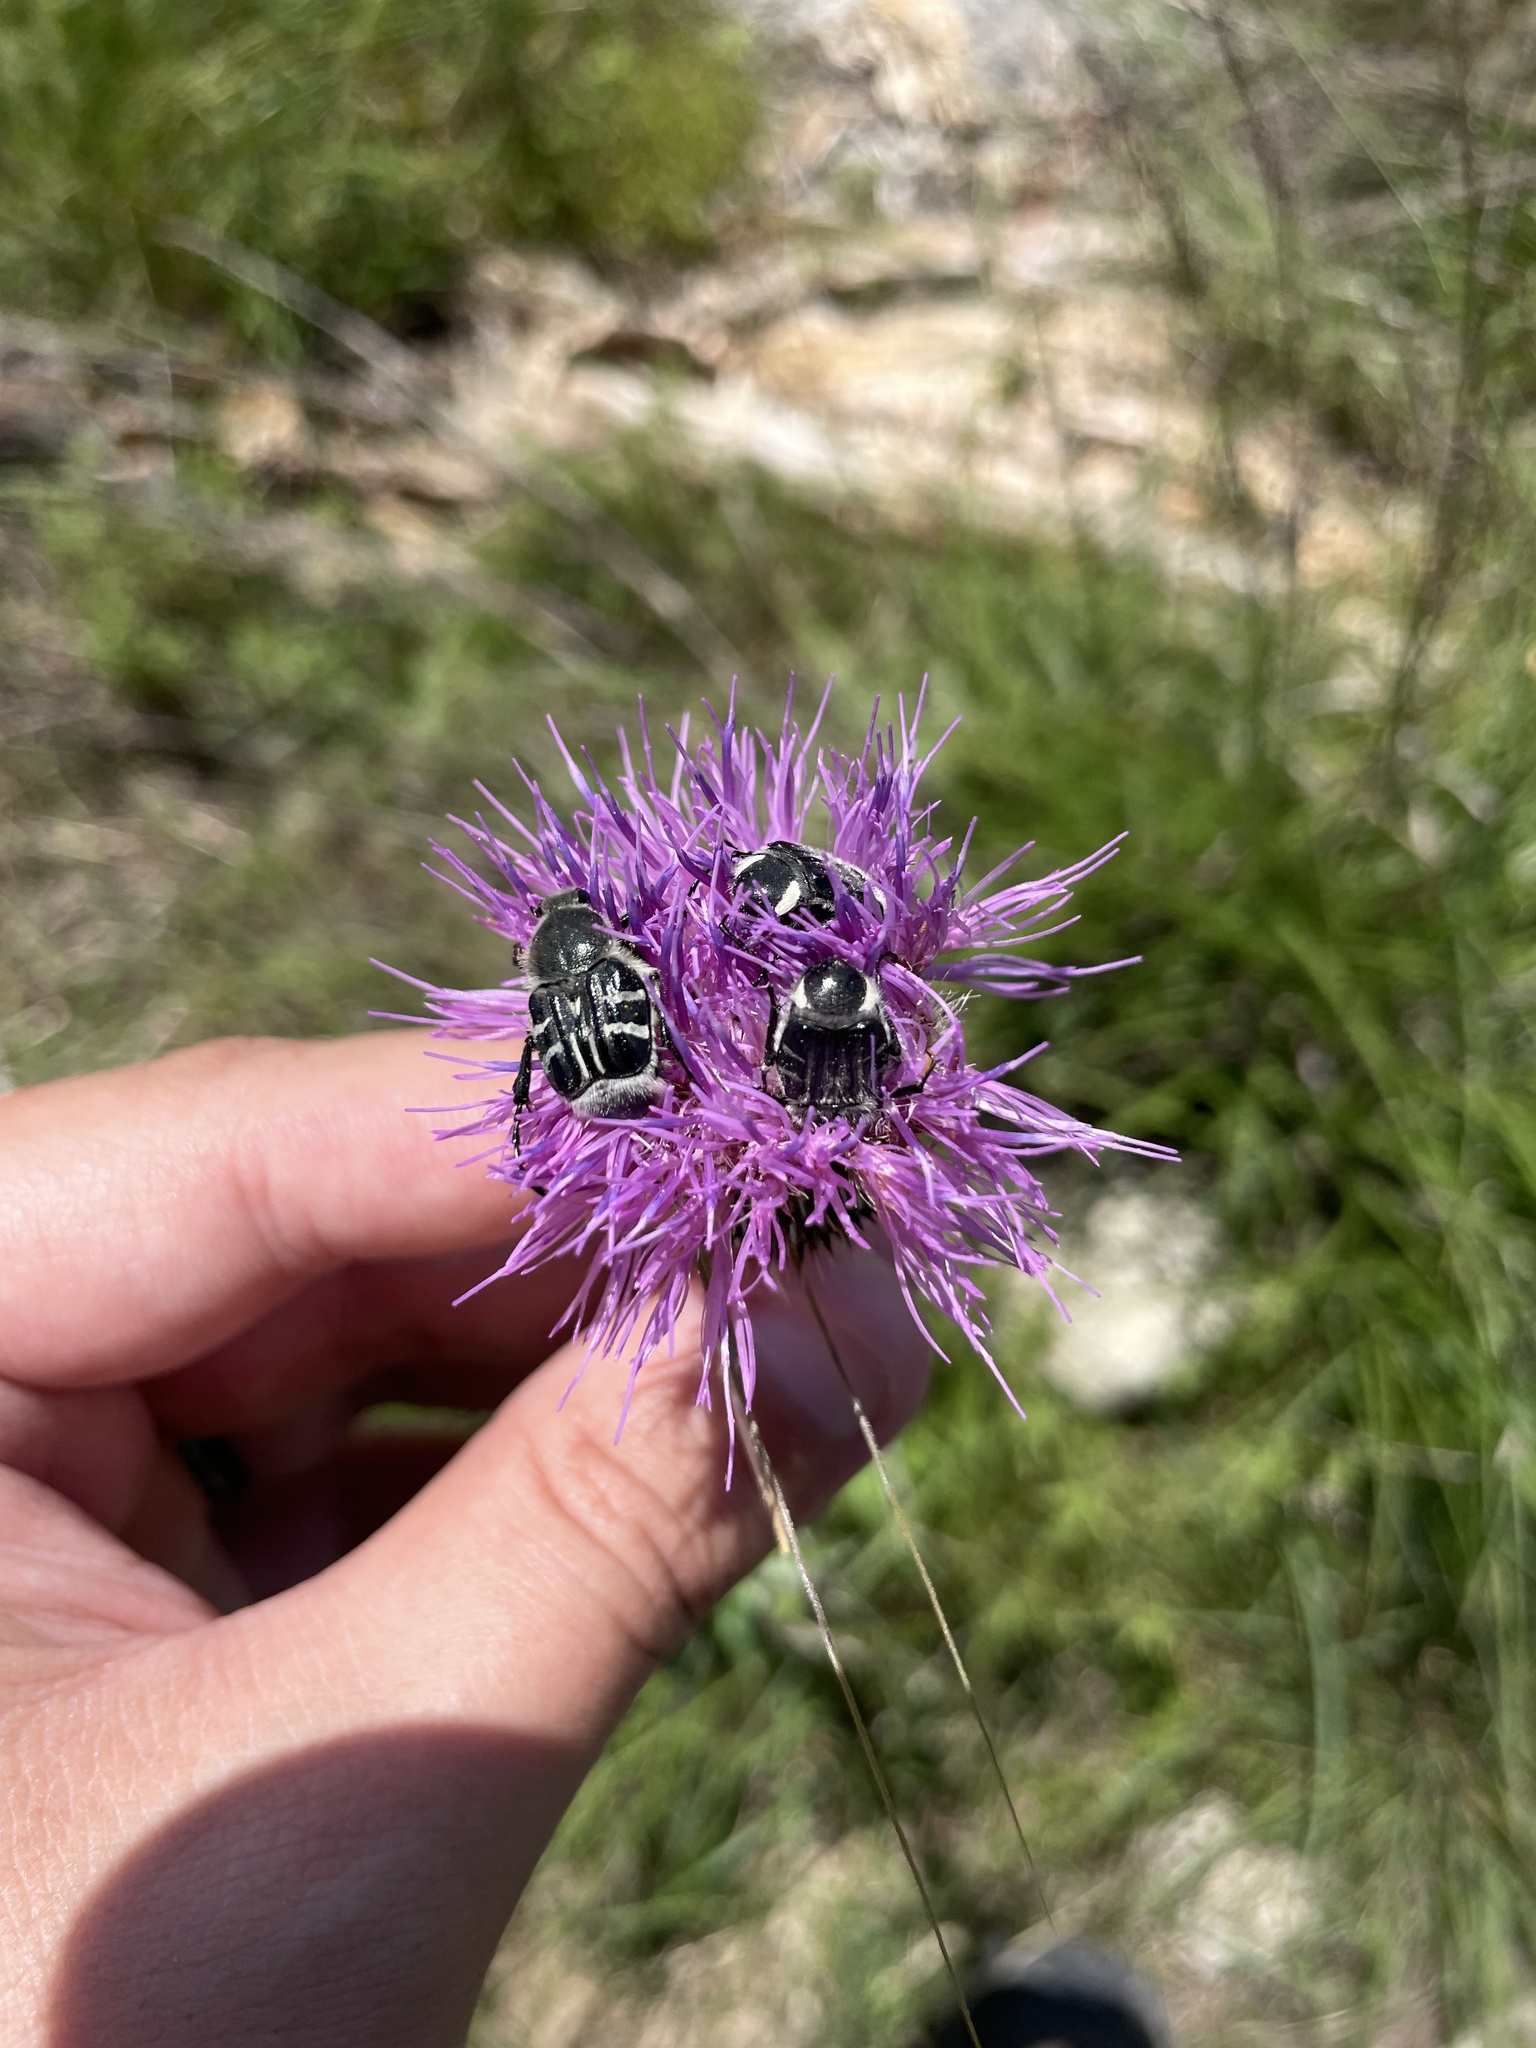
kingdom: Plantae
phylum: Tracheophyta
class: Magnoliopsida
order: Asterales
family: Asteraceae
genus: Cirsium
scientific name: Cirsium texanum
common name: Texas purple thistle
